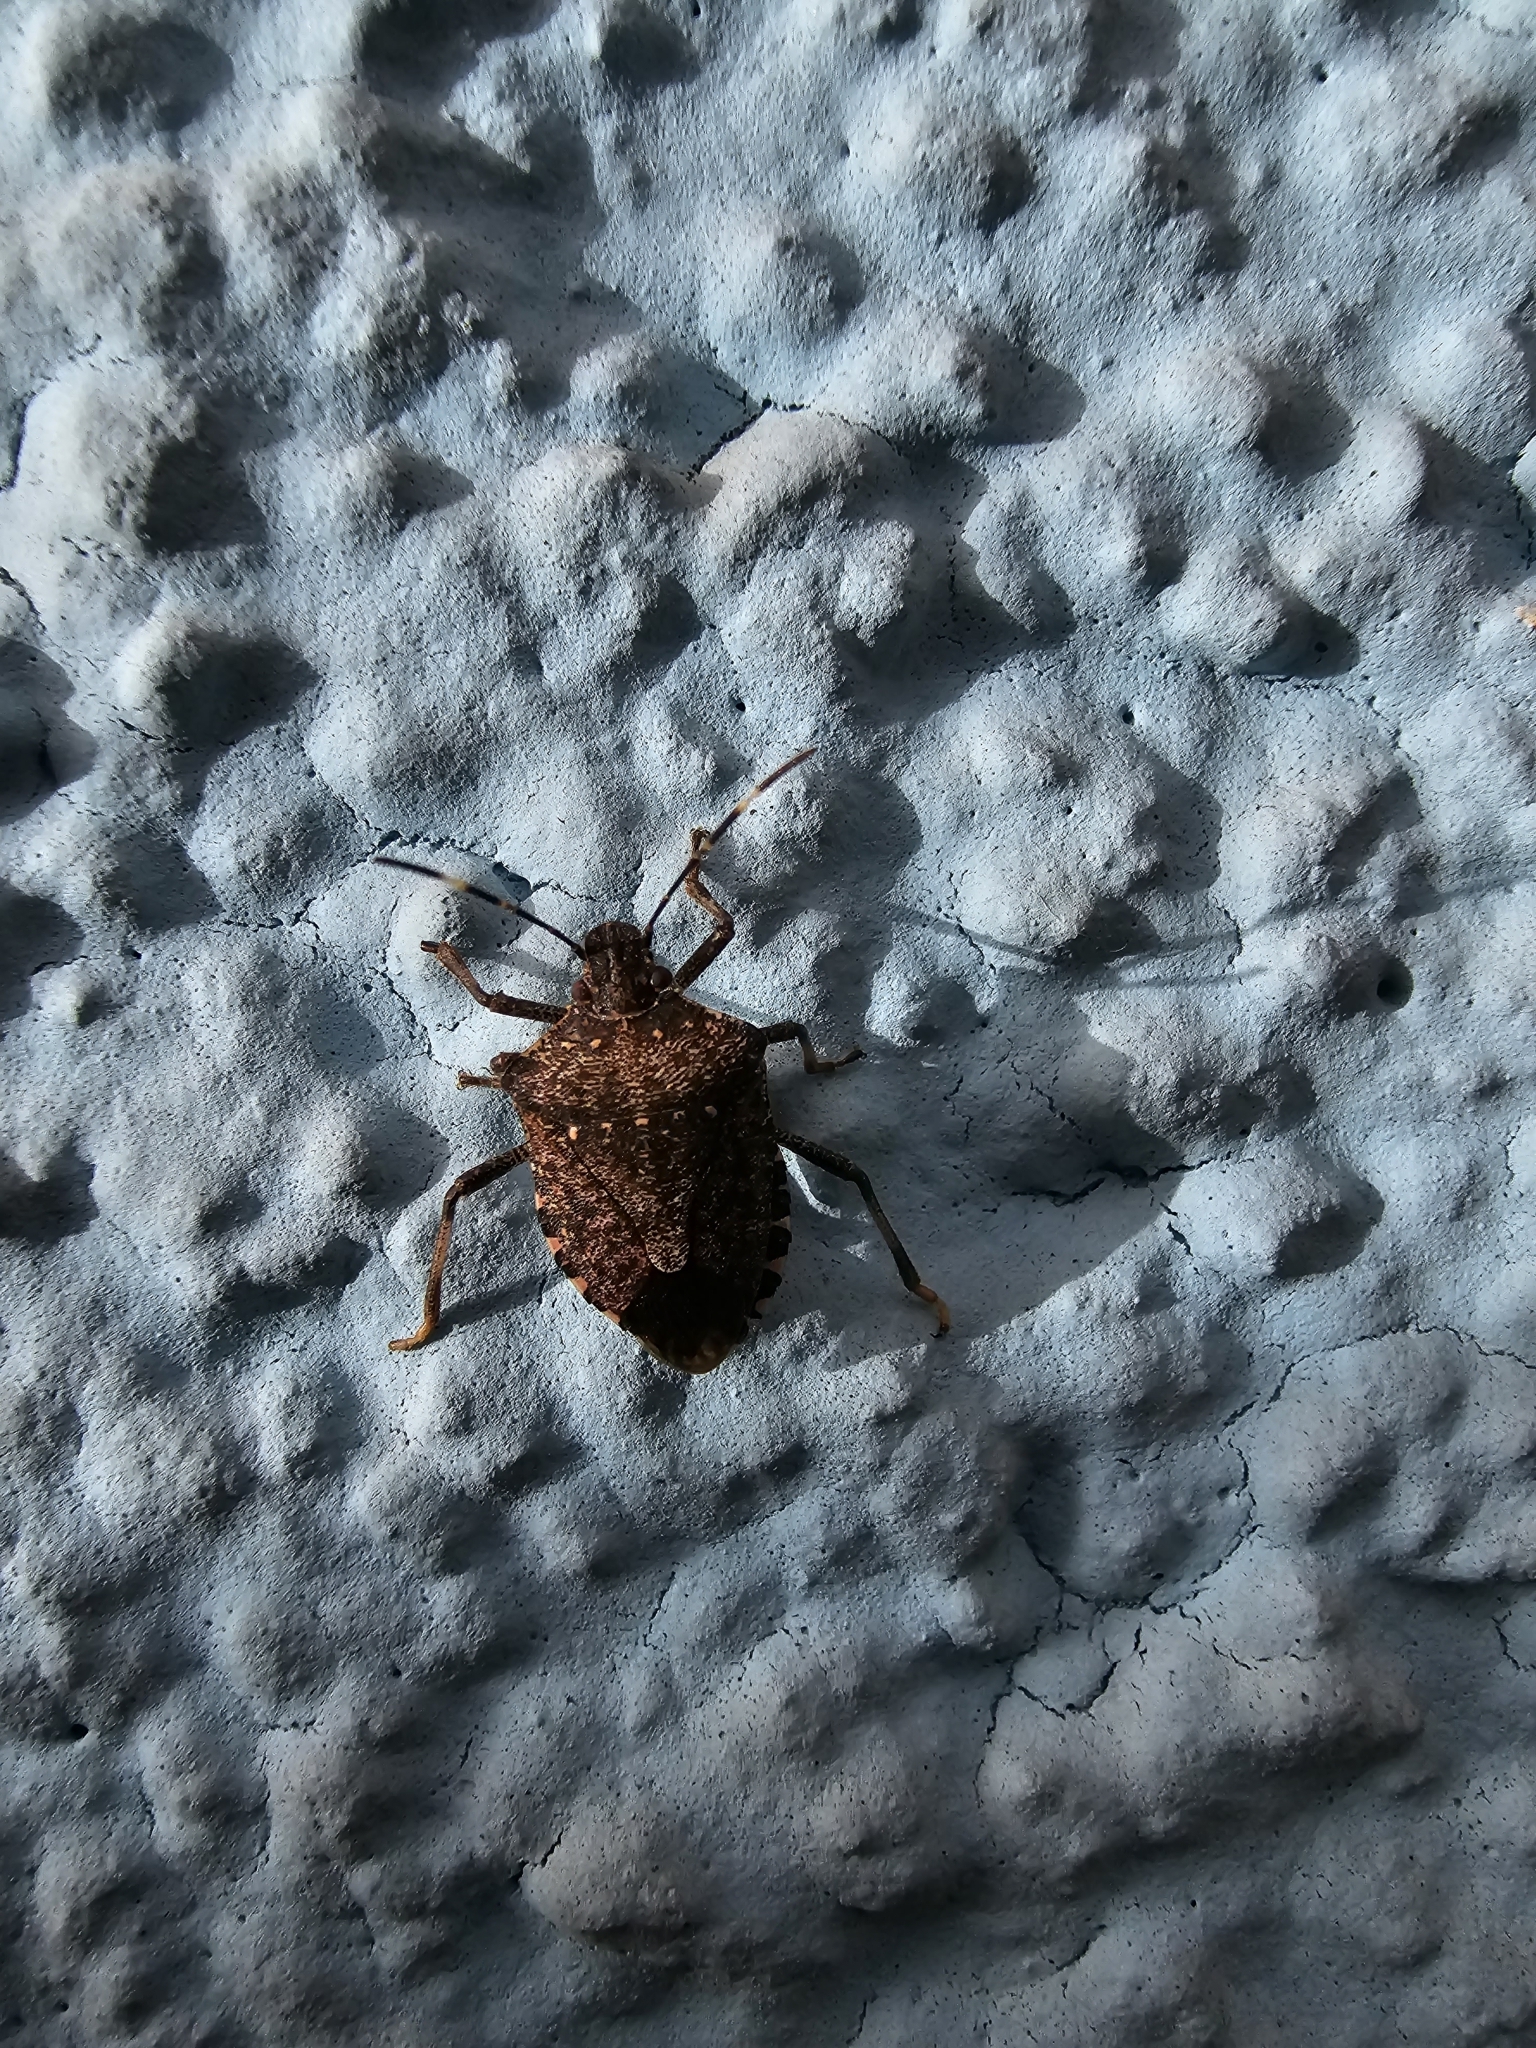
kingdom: Animalia
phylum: Arthropoda
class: Insecta
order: Hemiptera
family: Pentatomidae
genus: Halyomorpha
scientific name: Halyomorpha halys
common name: Brown marmorated stink bug
